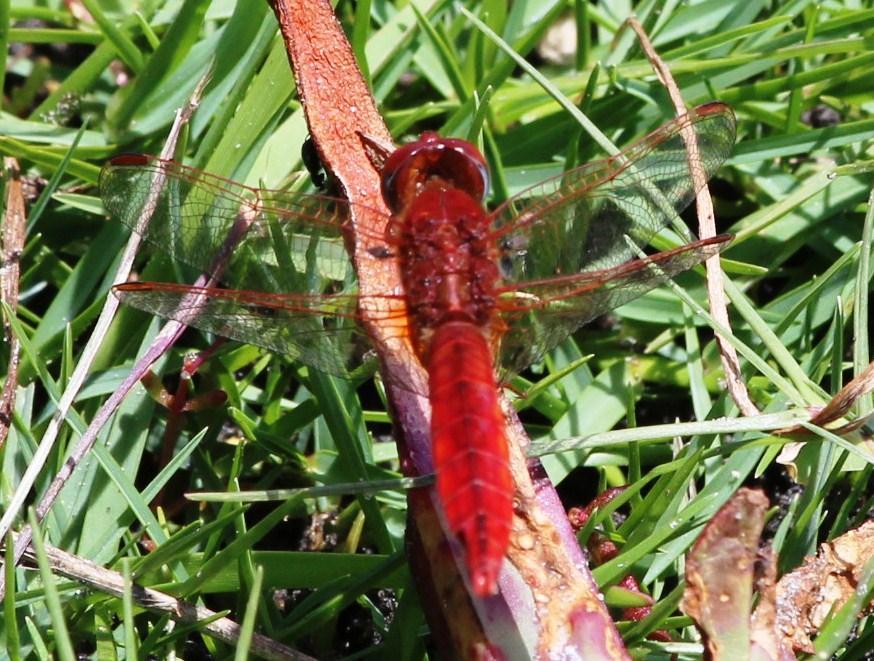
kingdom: Animalia
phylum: Arthropoda
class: Insecta
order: Odonata
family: Libellulidae
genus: Crocothemis
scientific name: Crocothemis erythraea
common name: Scarlet dragonfly
